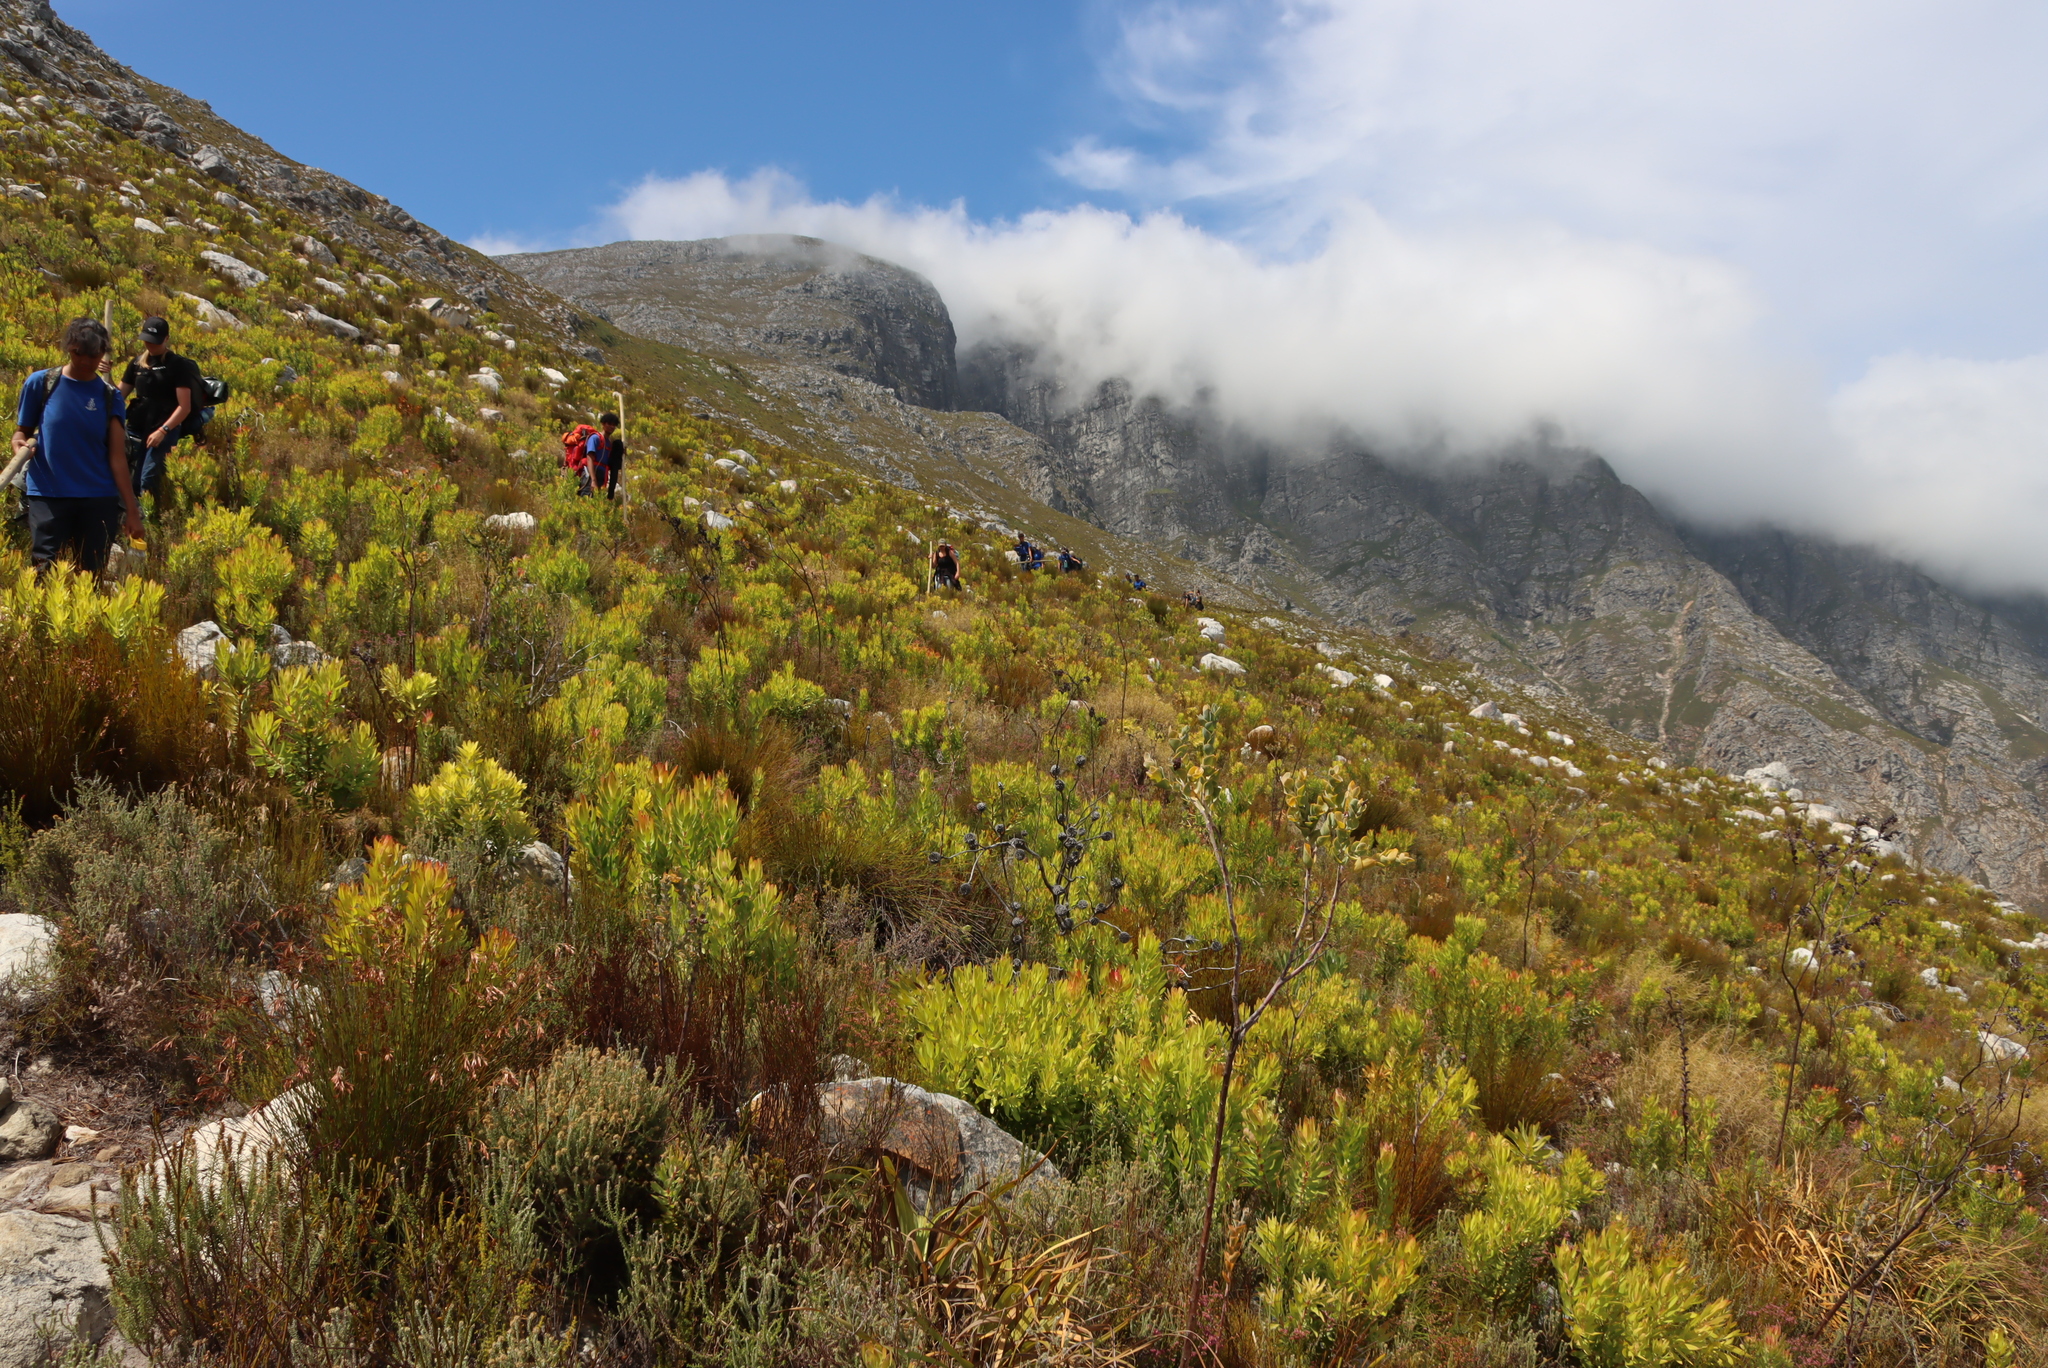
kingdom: Plantae
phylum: Tracheophyta
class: Magnoliopsida
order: Santalales
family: Thesiaceae
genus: Thesium
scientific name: Thesium euphorbioides
